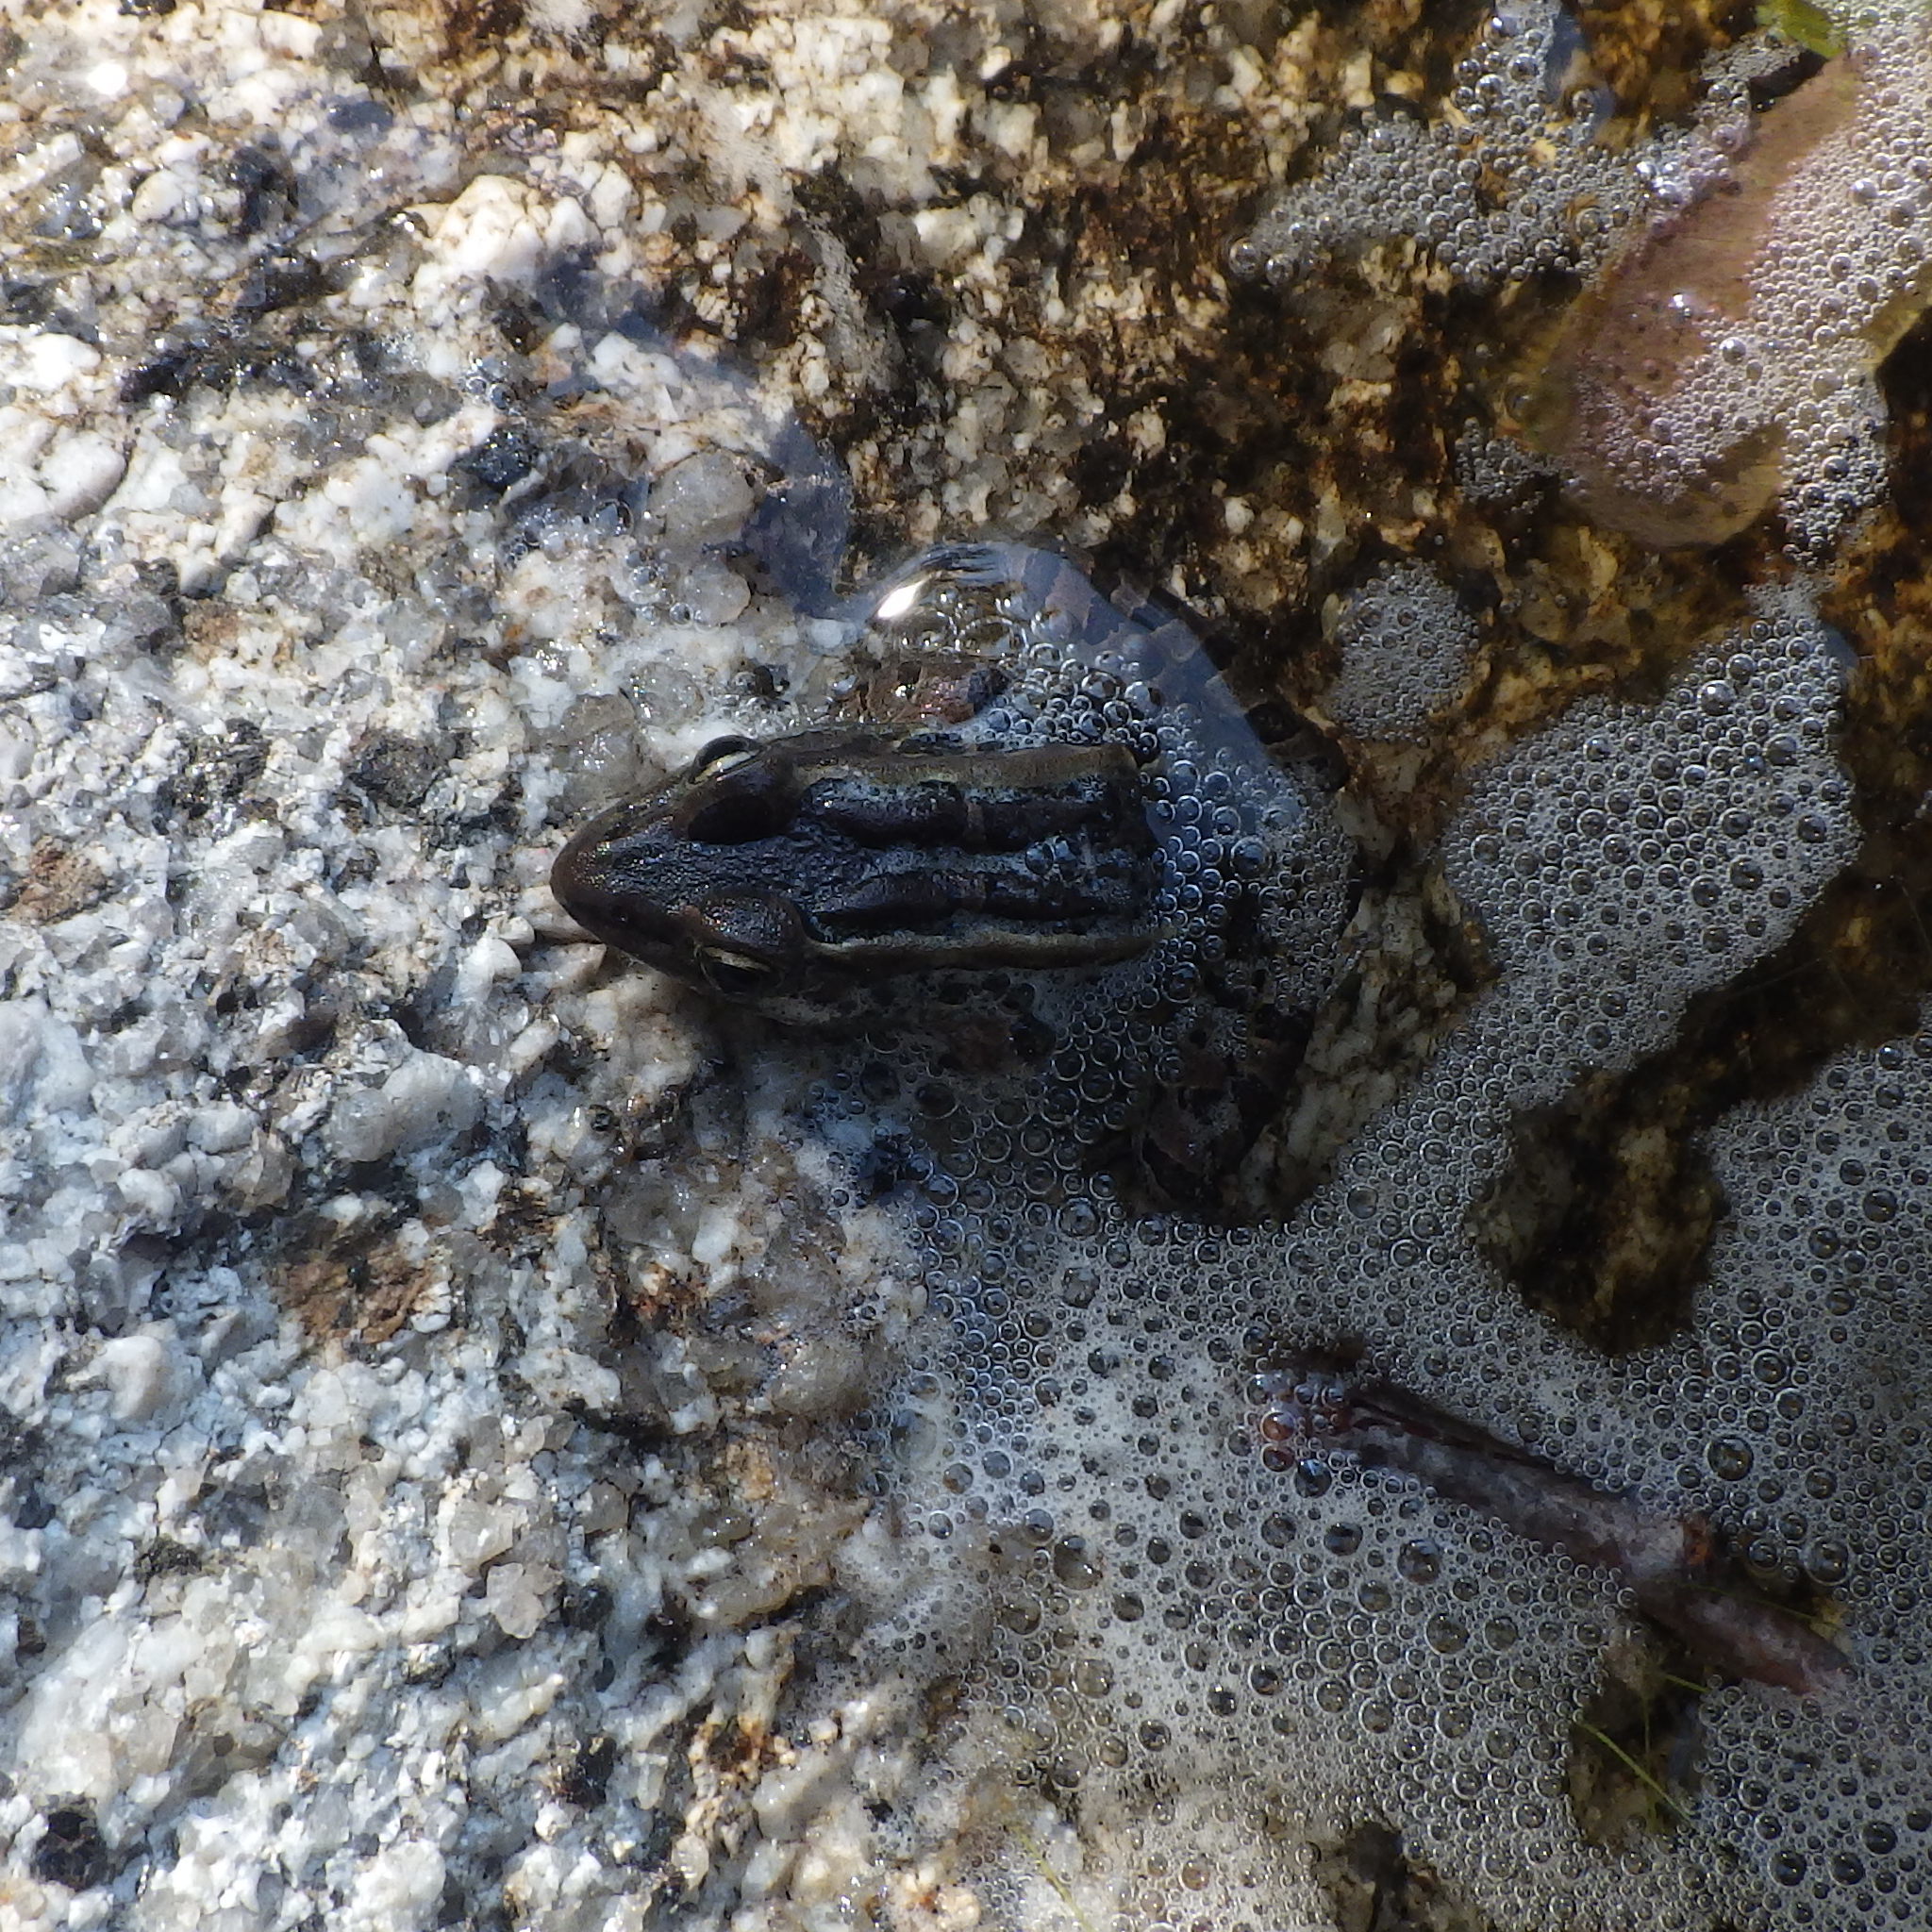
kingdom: Animalia
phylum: Chordata
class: Amphibia
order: Anura
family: Ranidae
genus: Lithobates
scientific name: Lithobates palustris
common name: Pickerel frog
